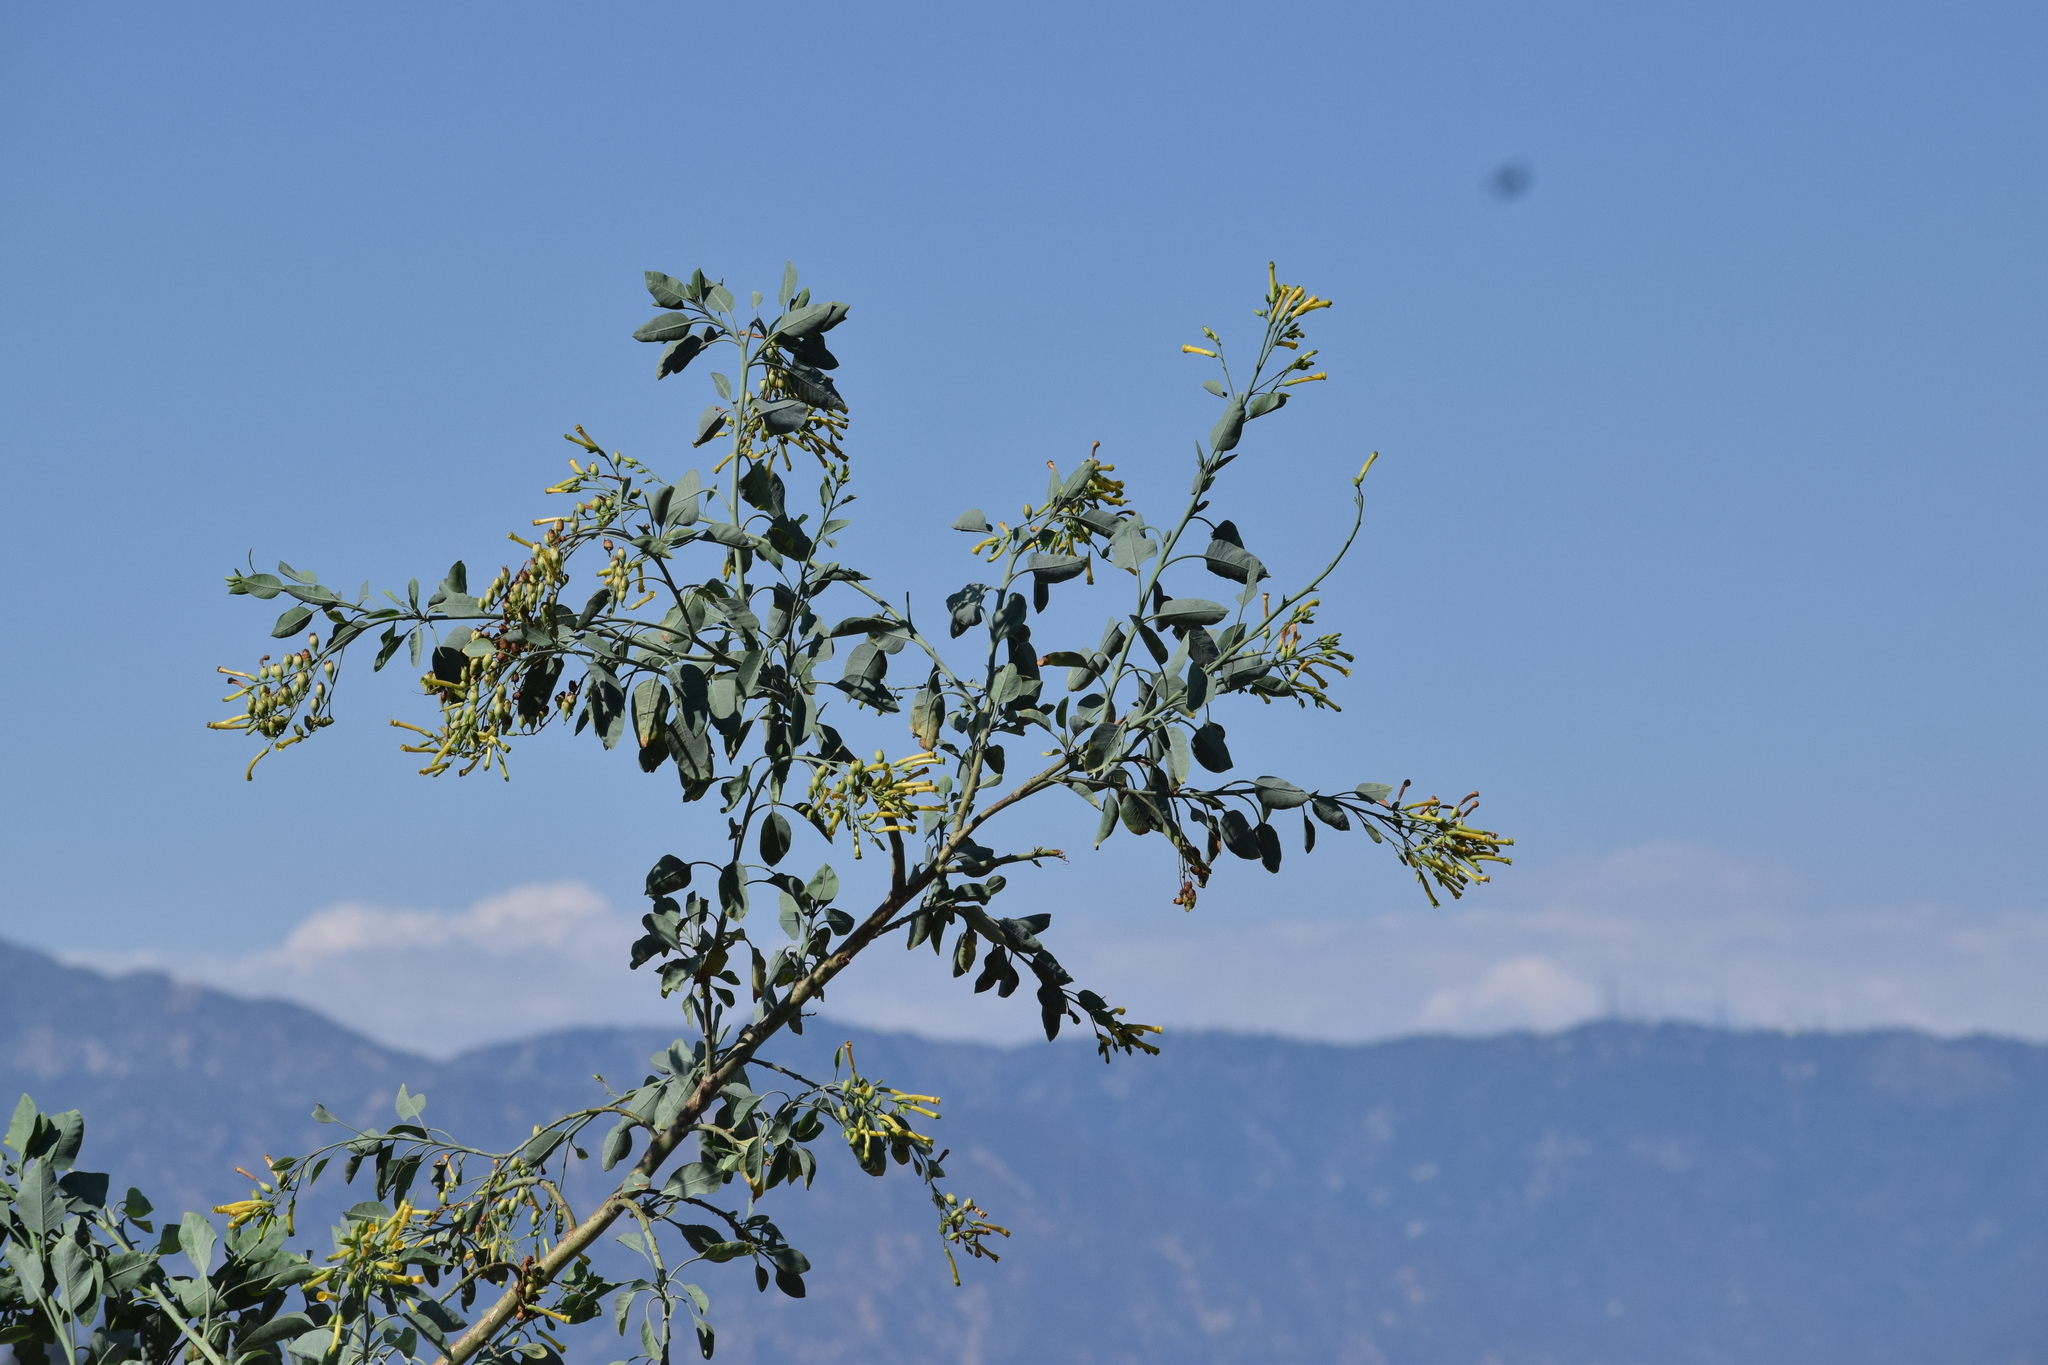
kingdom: Plantae
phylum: Tracheophyta
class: Magnoliopsida
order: Solanales
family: Solanaceae
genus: Nicotiana
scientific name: Nicotiana glauca
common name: Tree tobacco
